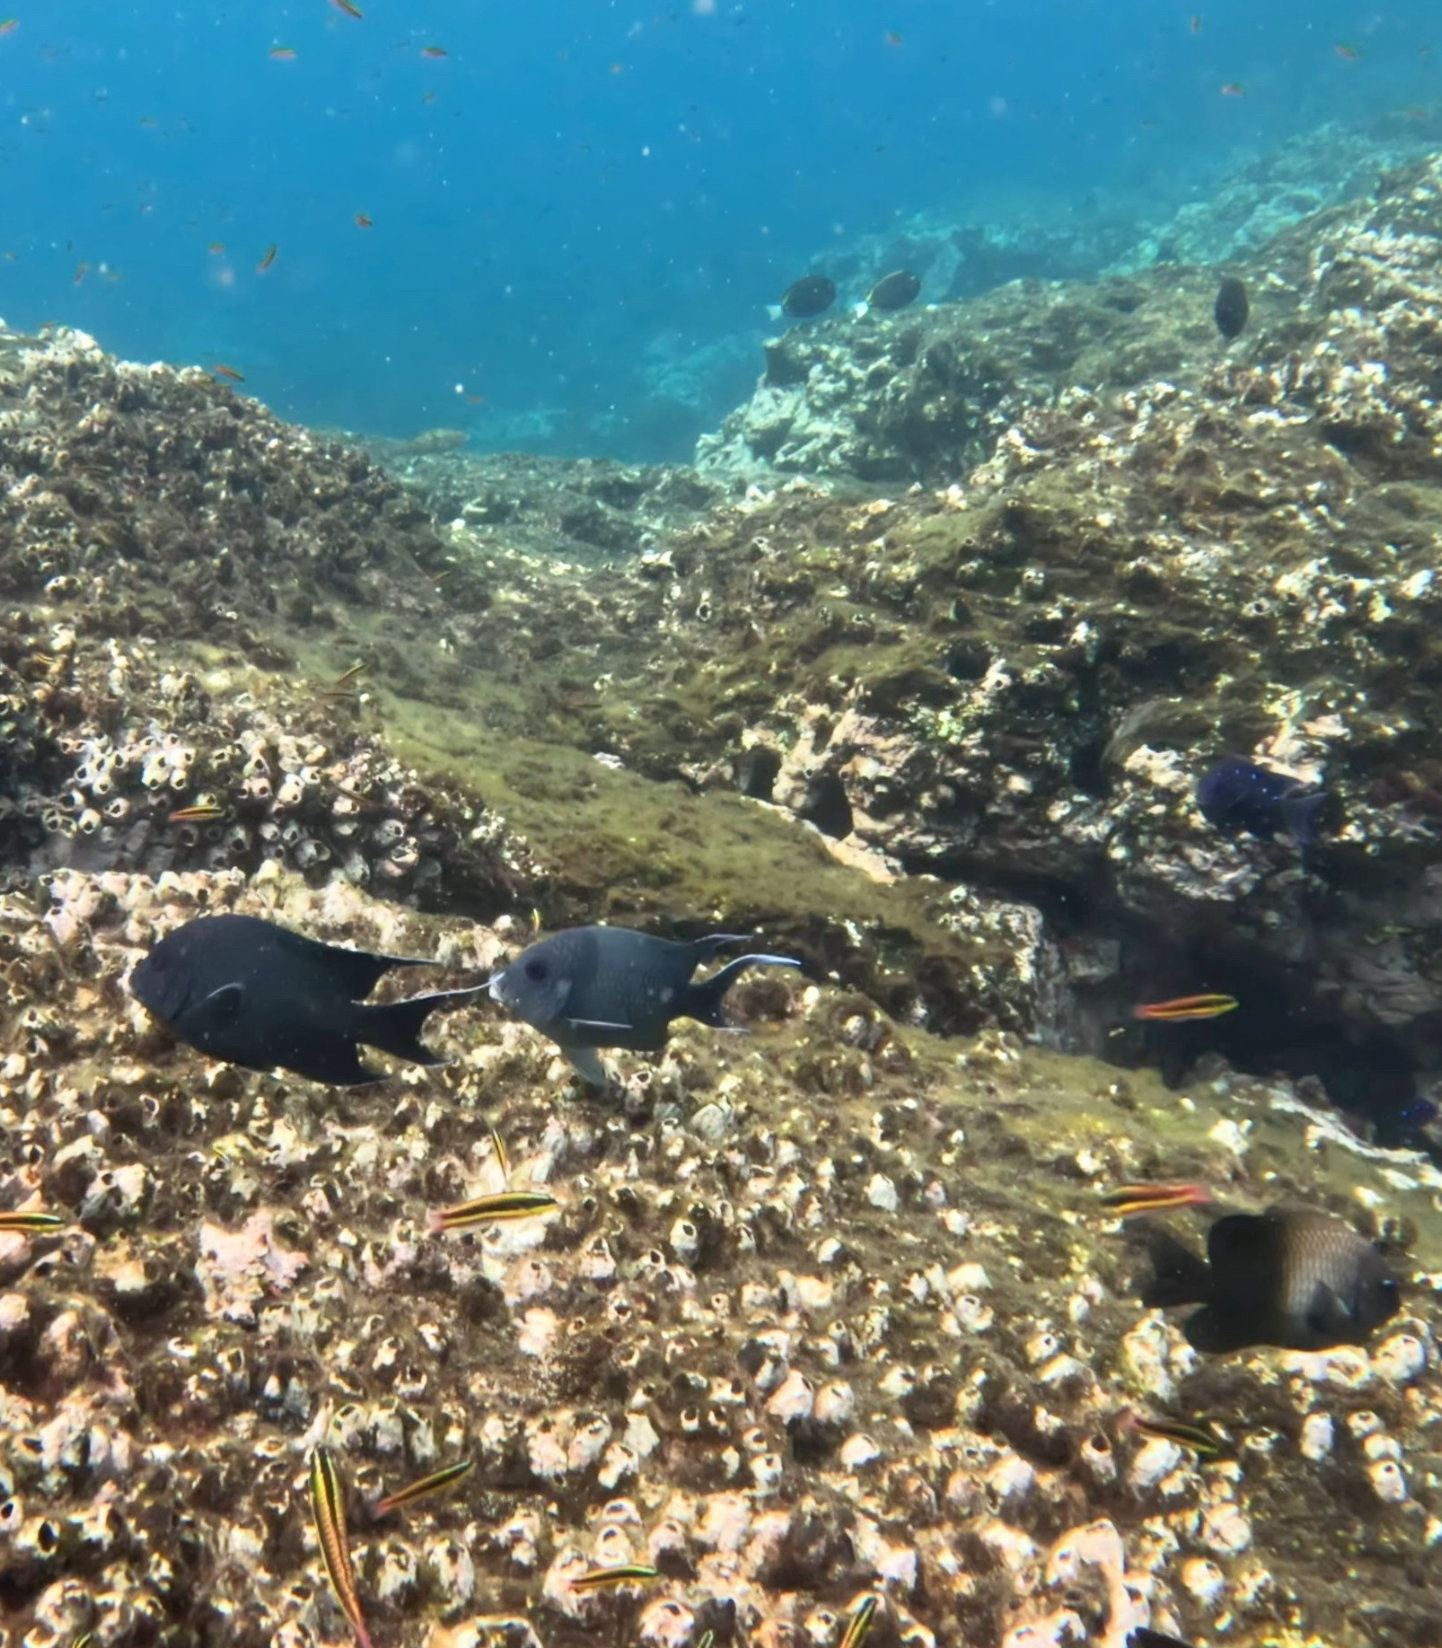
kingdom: Animalia
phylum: Chordata
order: Perciformes
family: Pomacentridae
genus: Microspathodon
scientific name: Microspathodon dorsalis
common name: Giant damselfish
